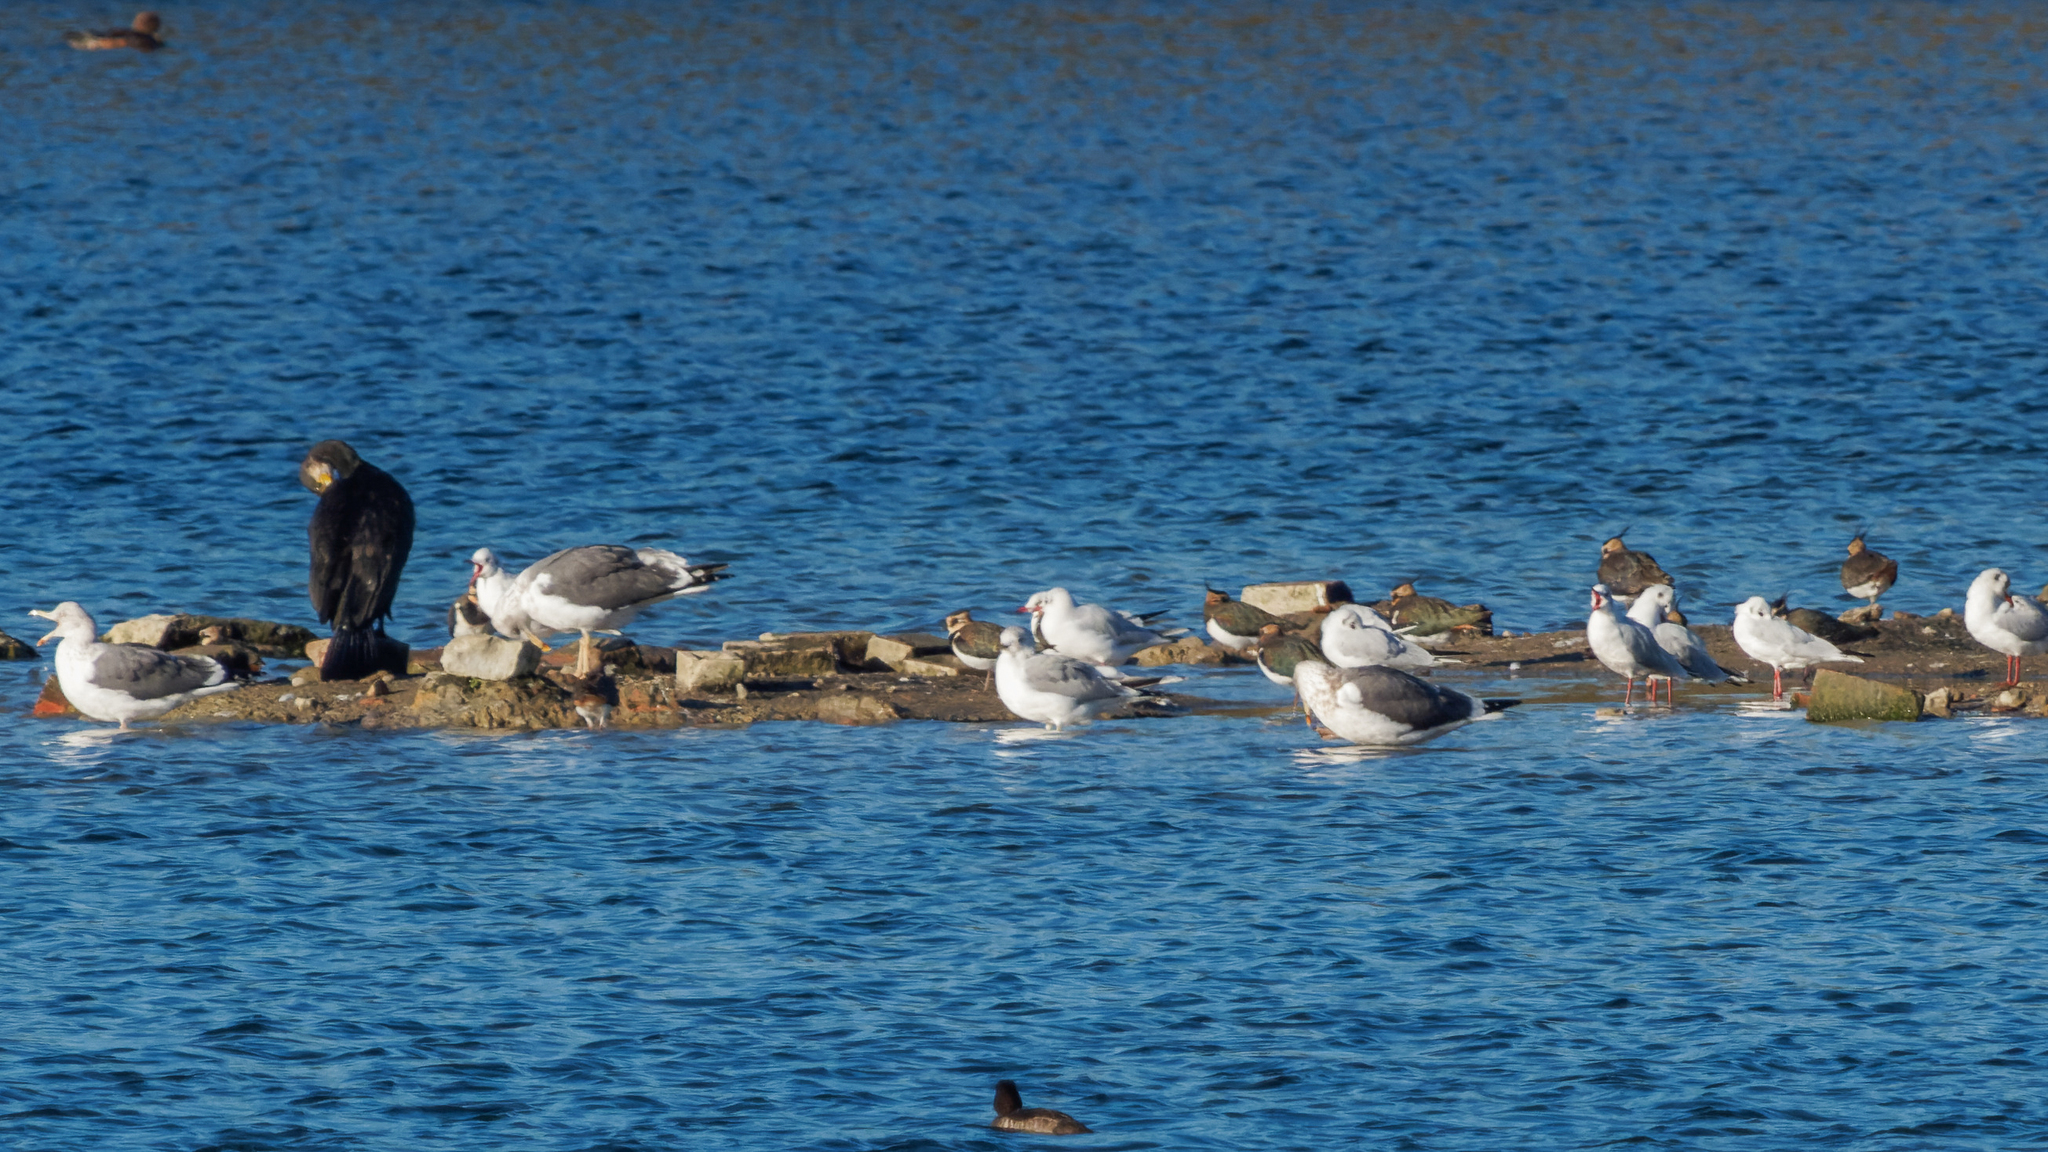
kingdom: Animalia
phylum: Chordata
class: Aves
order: Charadriiformes
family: Laridae
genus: Larus
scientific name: Larus canus
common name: Mew gull
